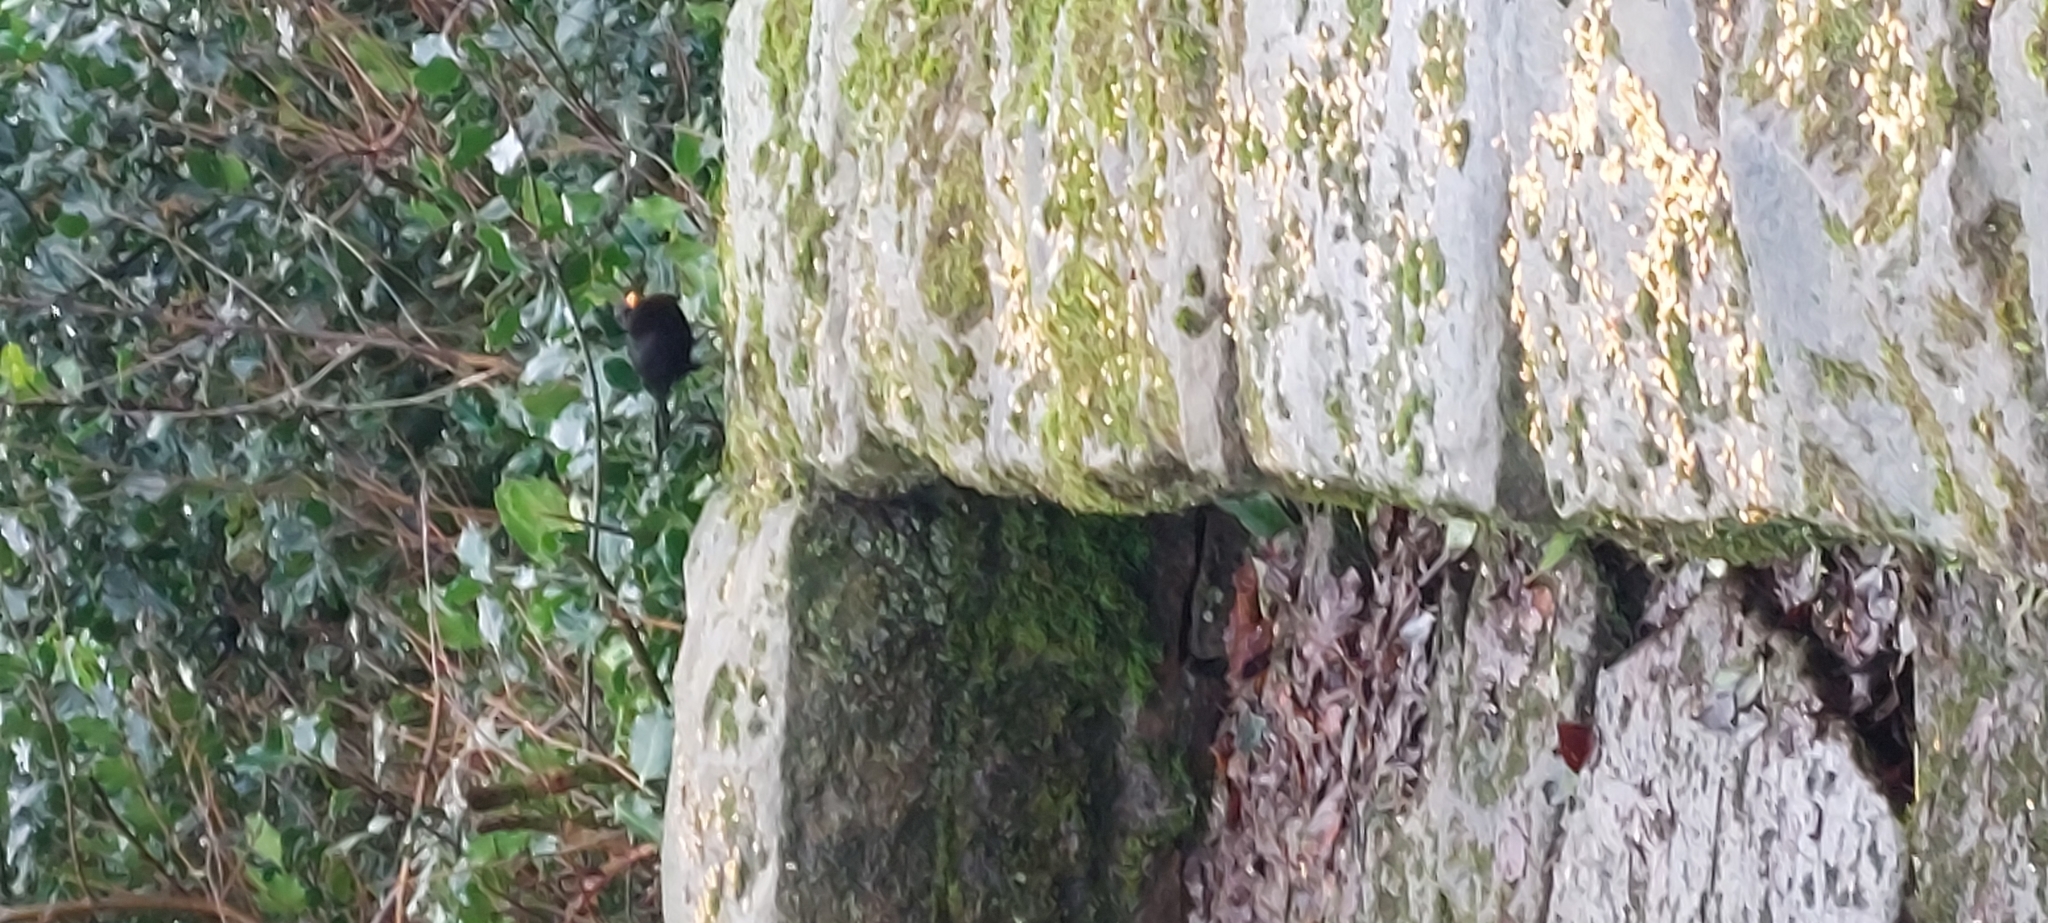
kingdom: Animalia
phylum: Chordata
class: Aves
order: Passeriformes
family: Turdidae
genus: Turdus
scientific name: Turdus merula
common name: Common blackbird
